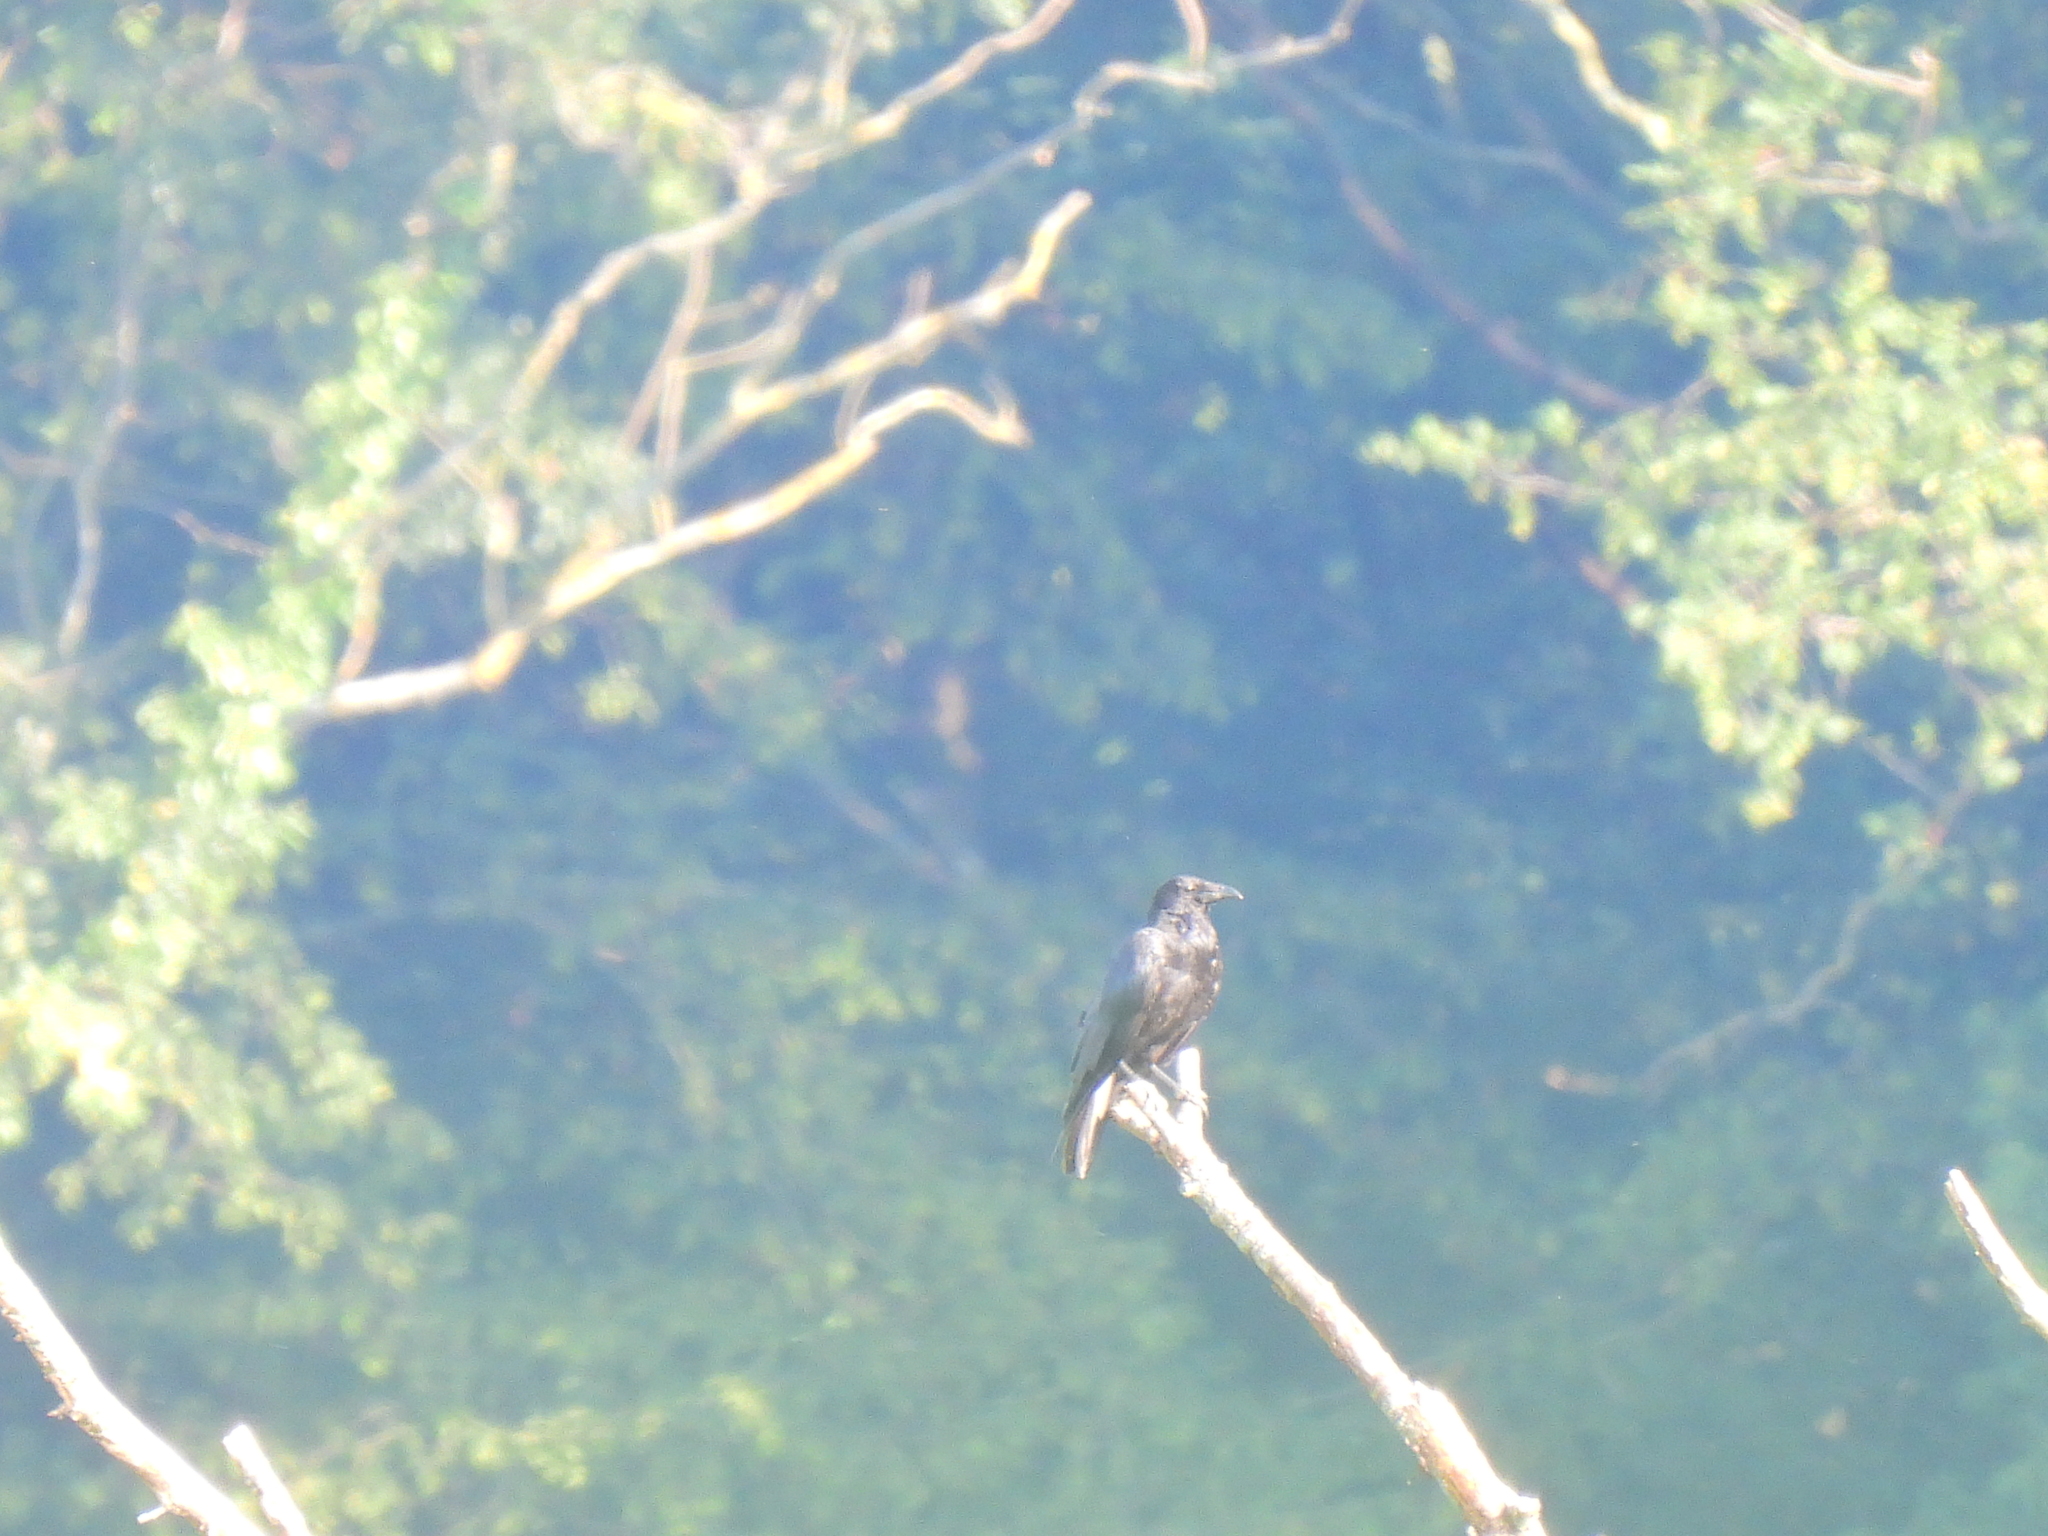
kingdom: Animalia
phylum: Chordata
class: Aves
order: Passeriformes
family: Corvidae
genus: Corvus
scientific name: Corvus corone
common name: Carrion crow
